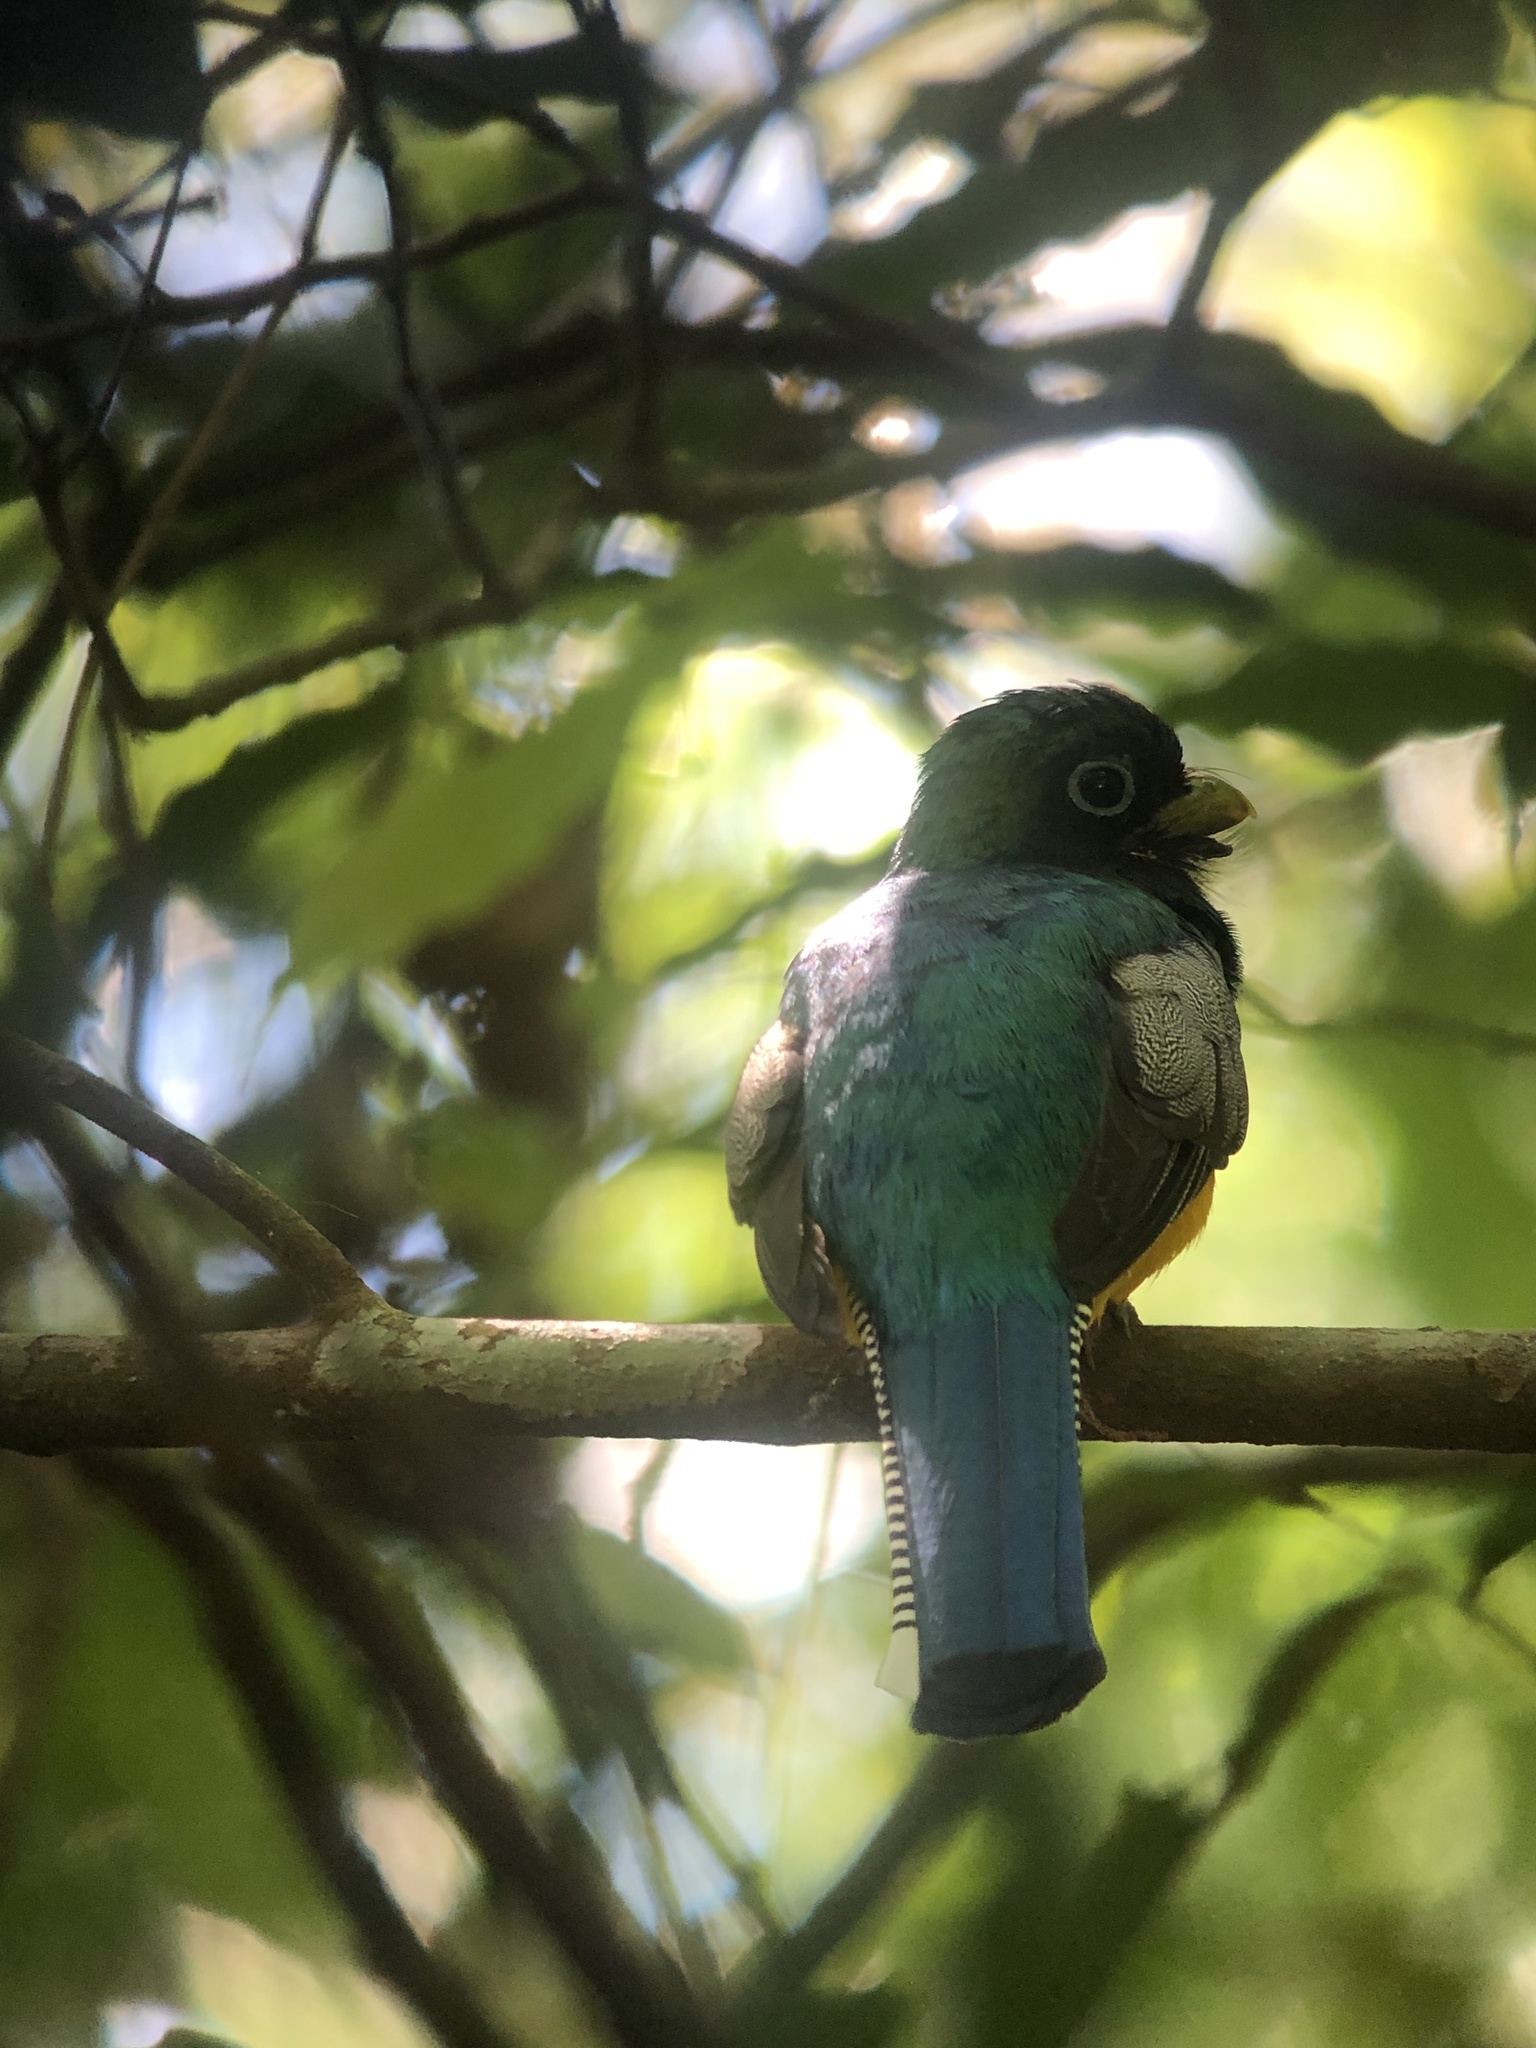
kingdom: Animalia
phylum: Chordata
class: Aves
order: Trogoniformes
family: Trogonidae
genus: Trogon
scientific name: Trogon rufus
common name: Black-throated trogon
